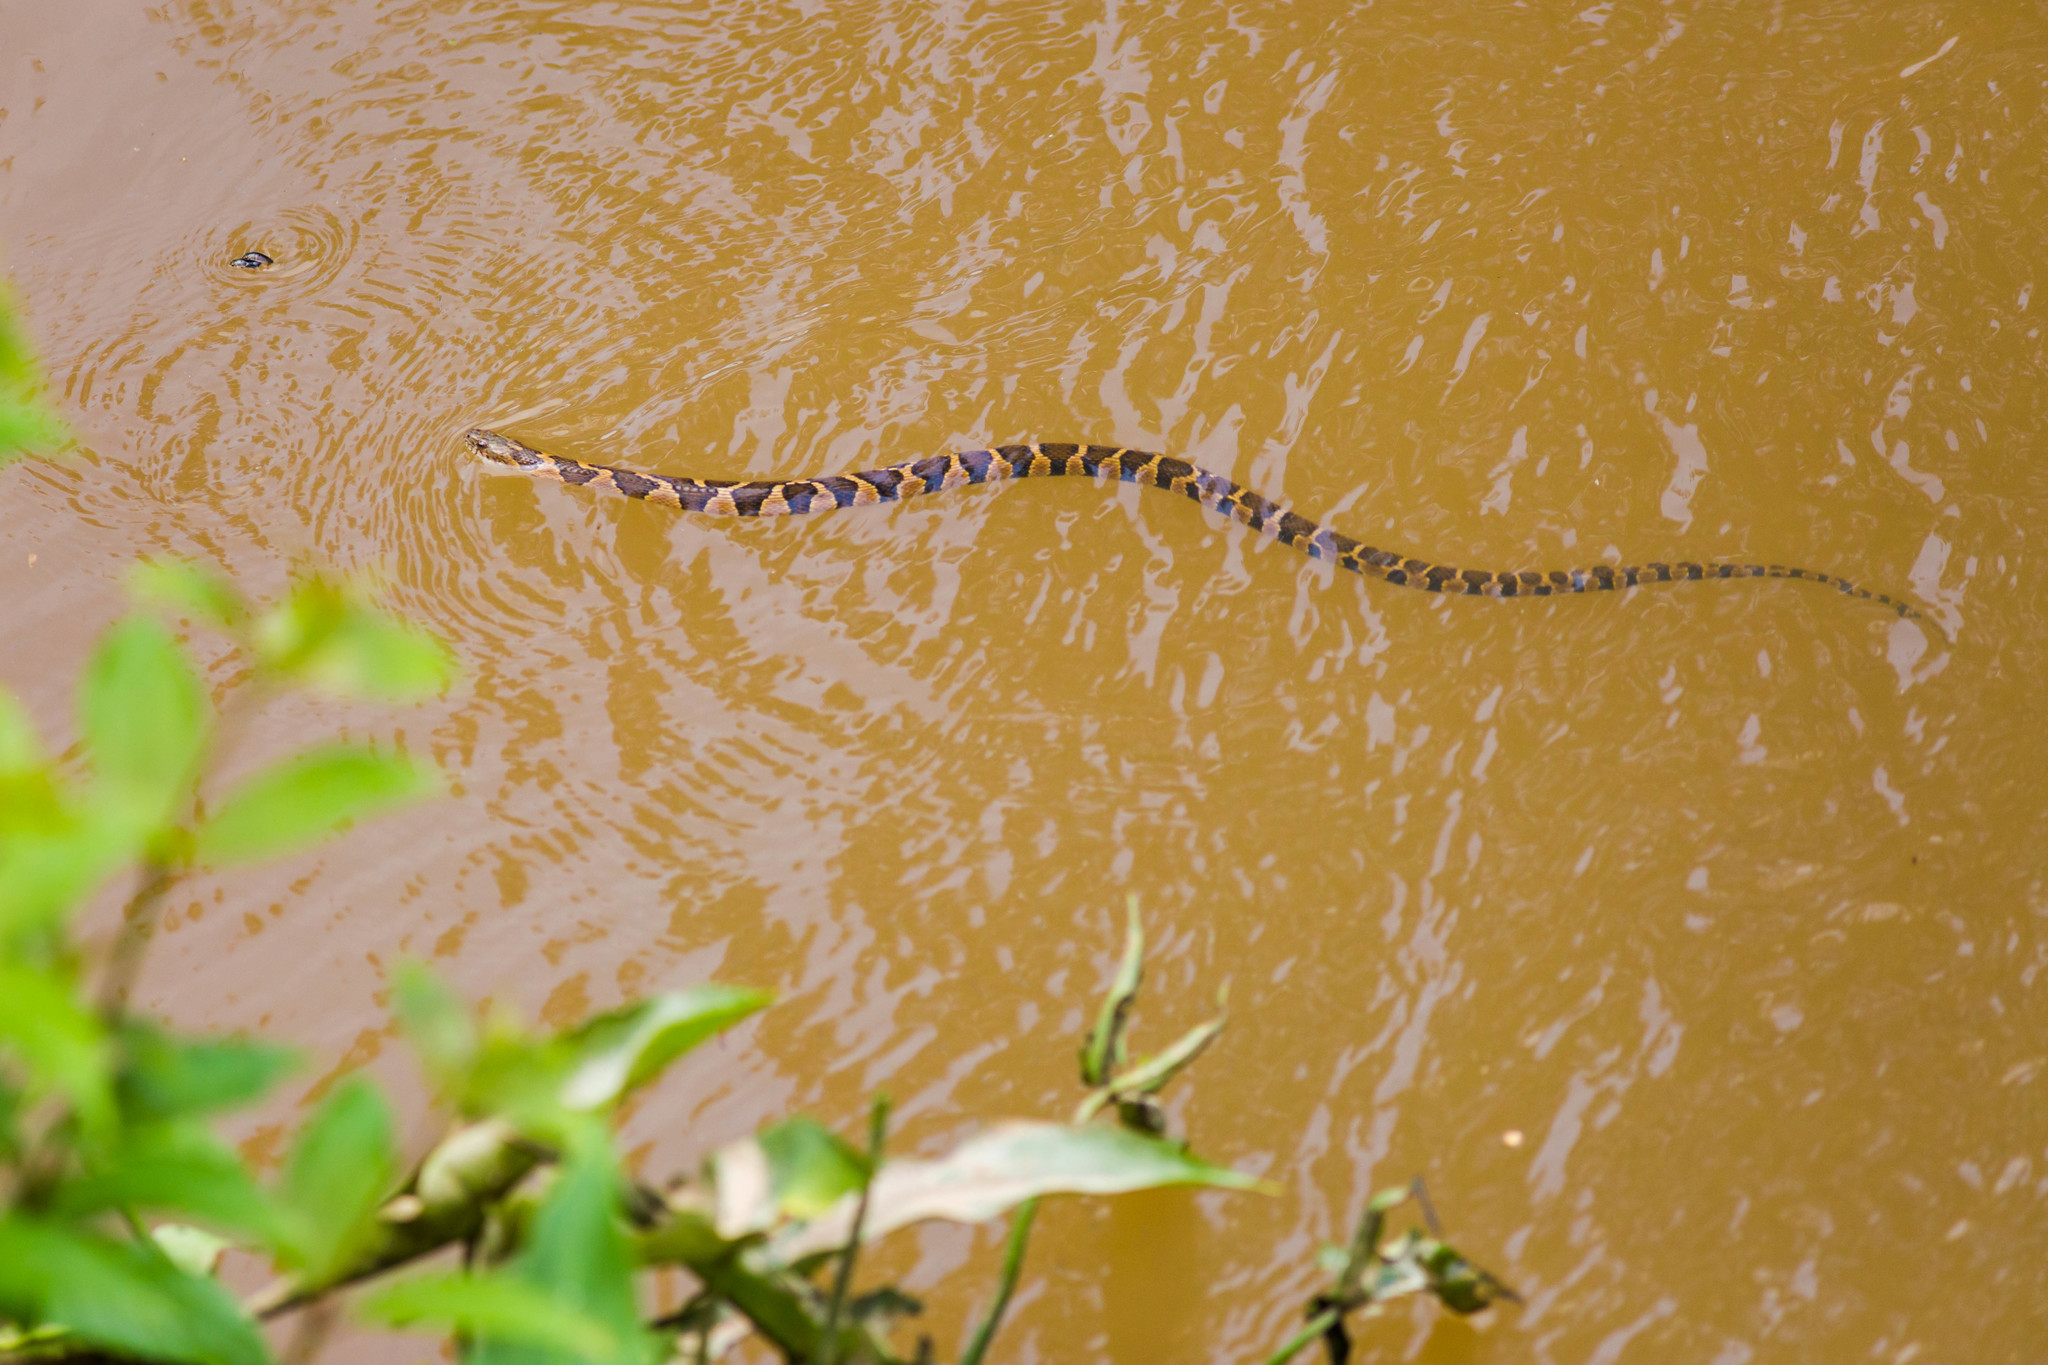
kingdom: Animalia
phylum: Chordata
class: Squamata
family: Colubridae
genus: Nerodia
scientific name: Nerodia sipedon
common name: Northern water snake
